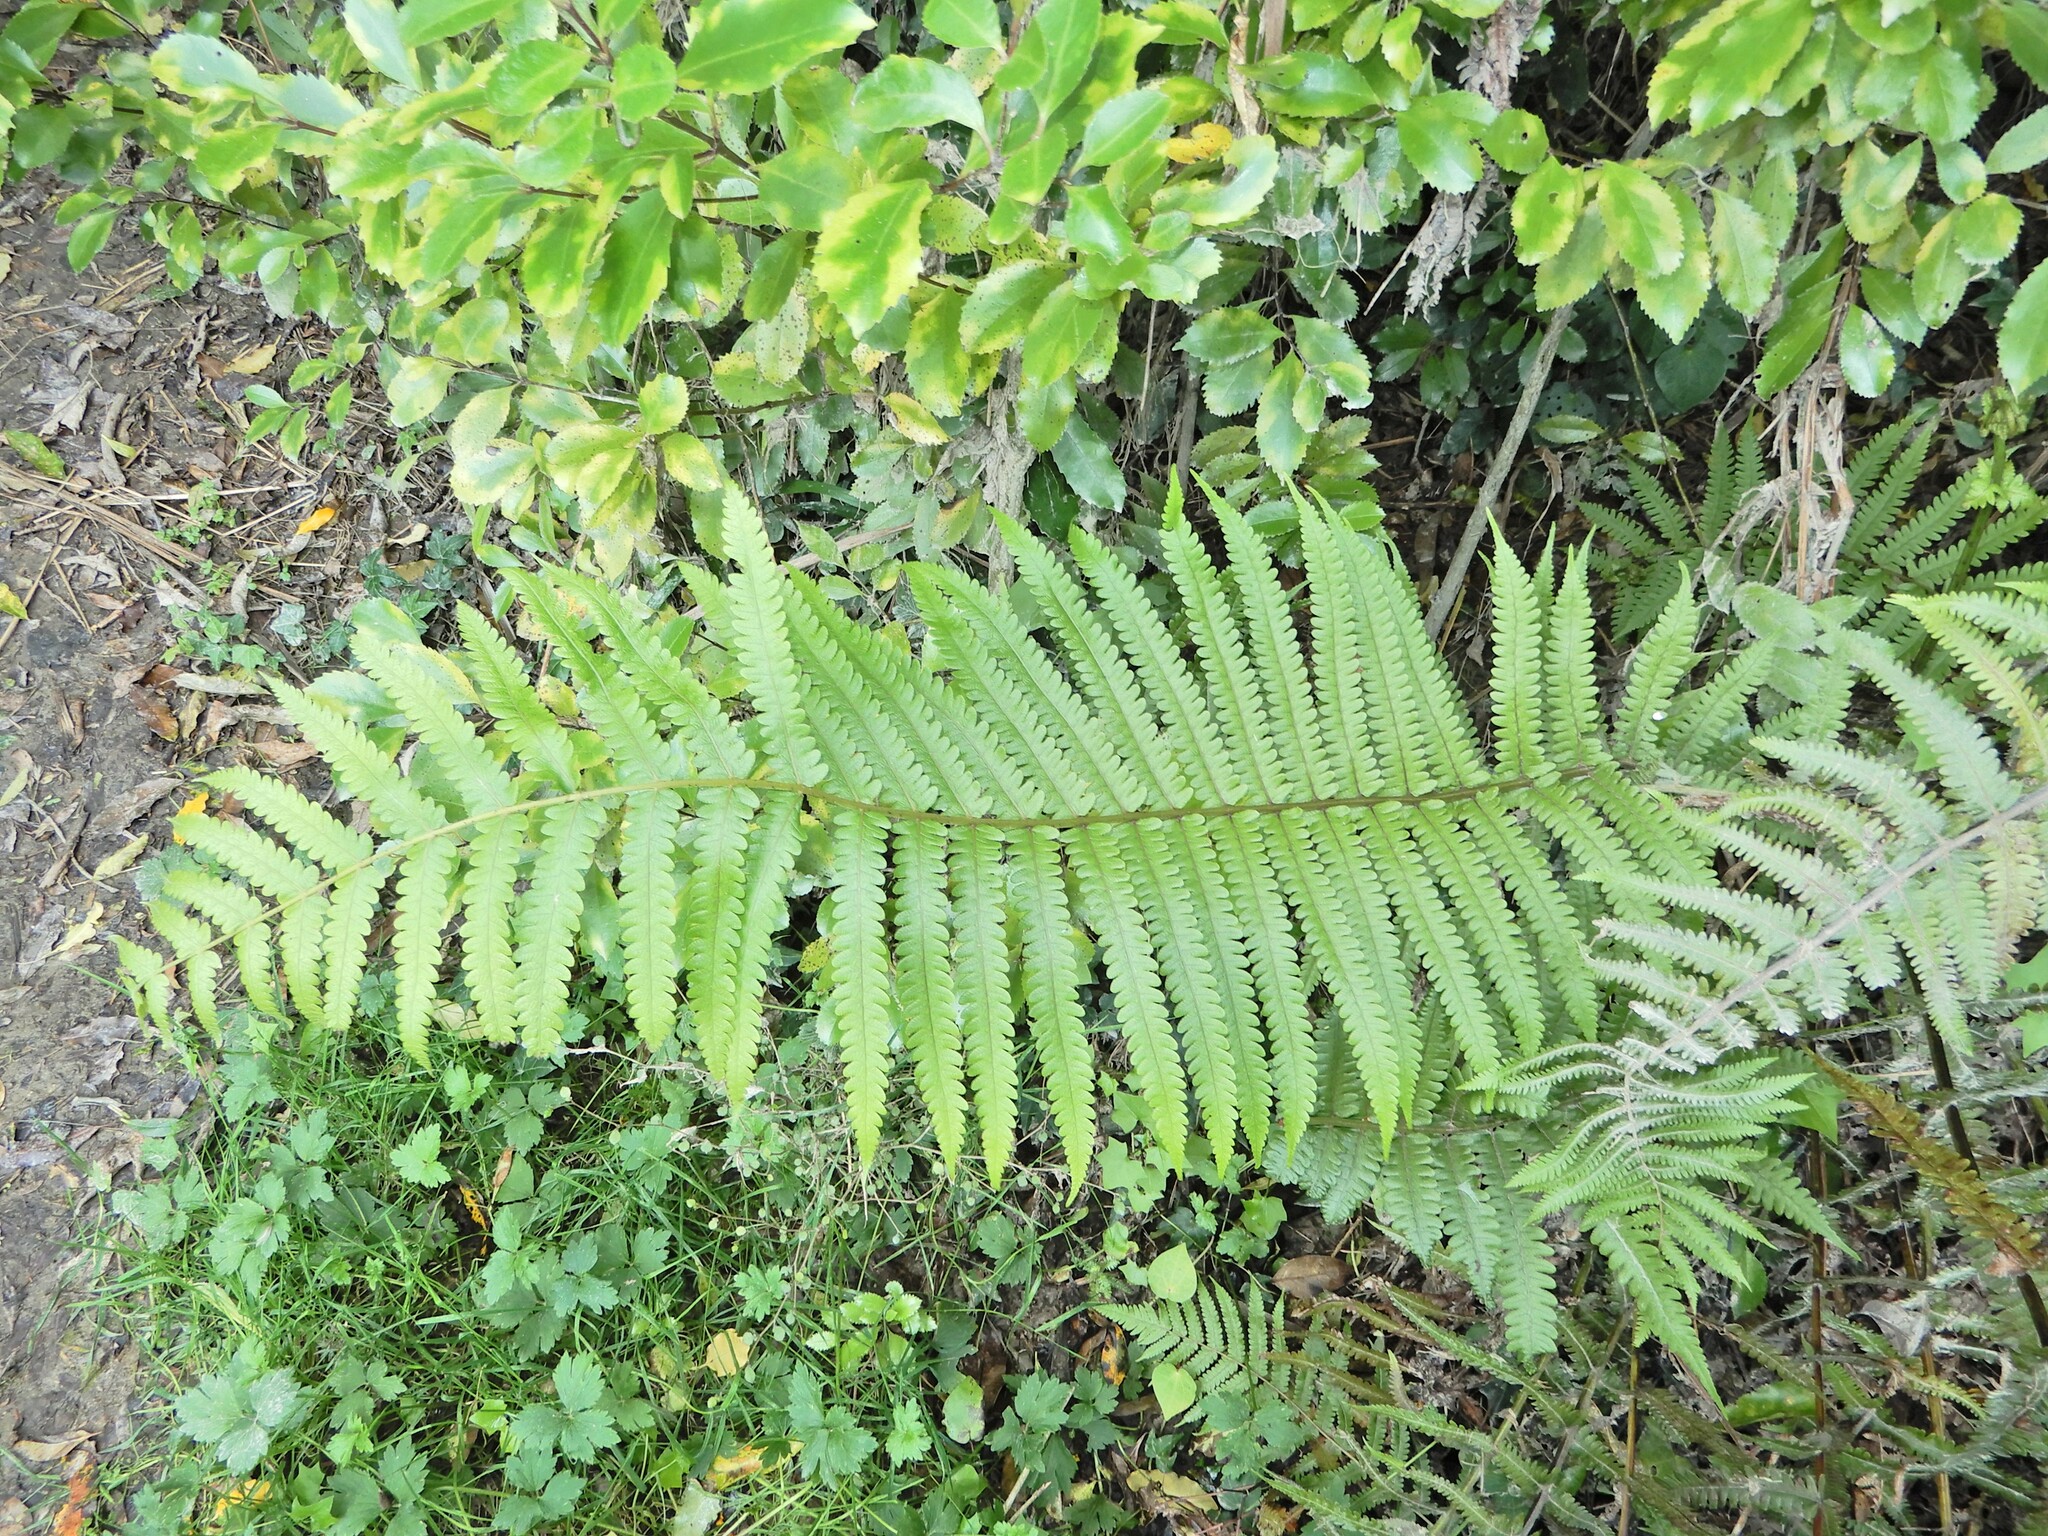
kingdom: Plantae
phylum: Tracheophyta
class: Polypodiopsida
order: Polypodiales
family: Thelypteridaceae
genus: Pakau
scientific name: Pakau pennigera
